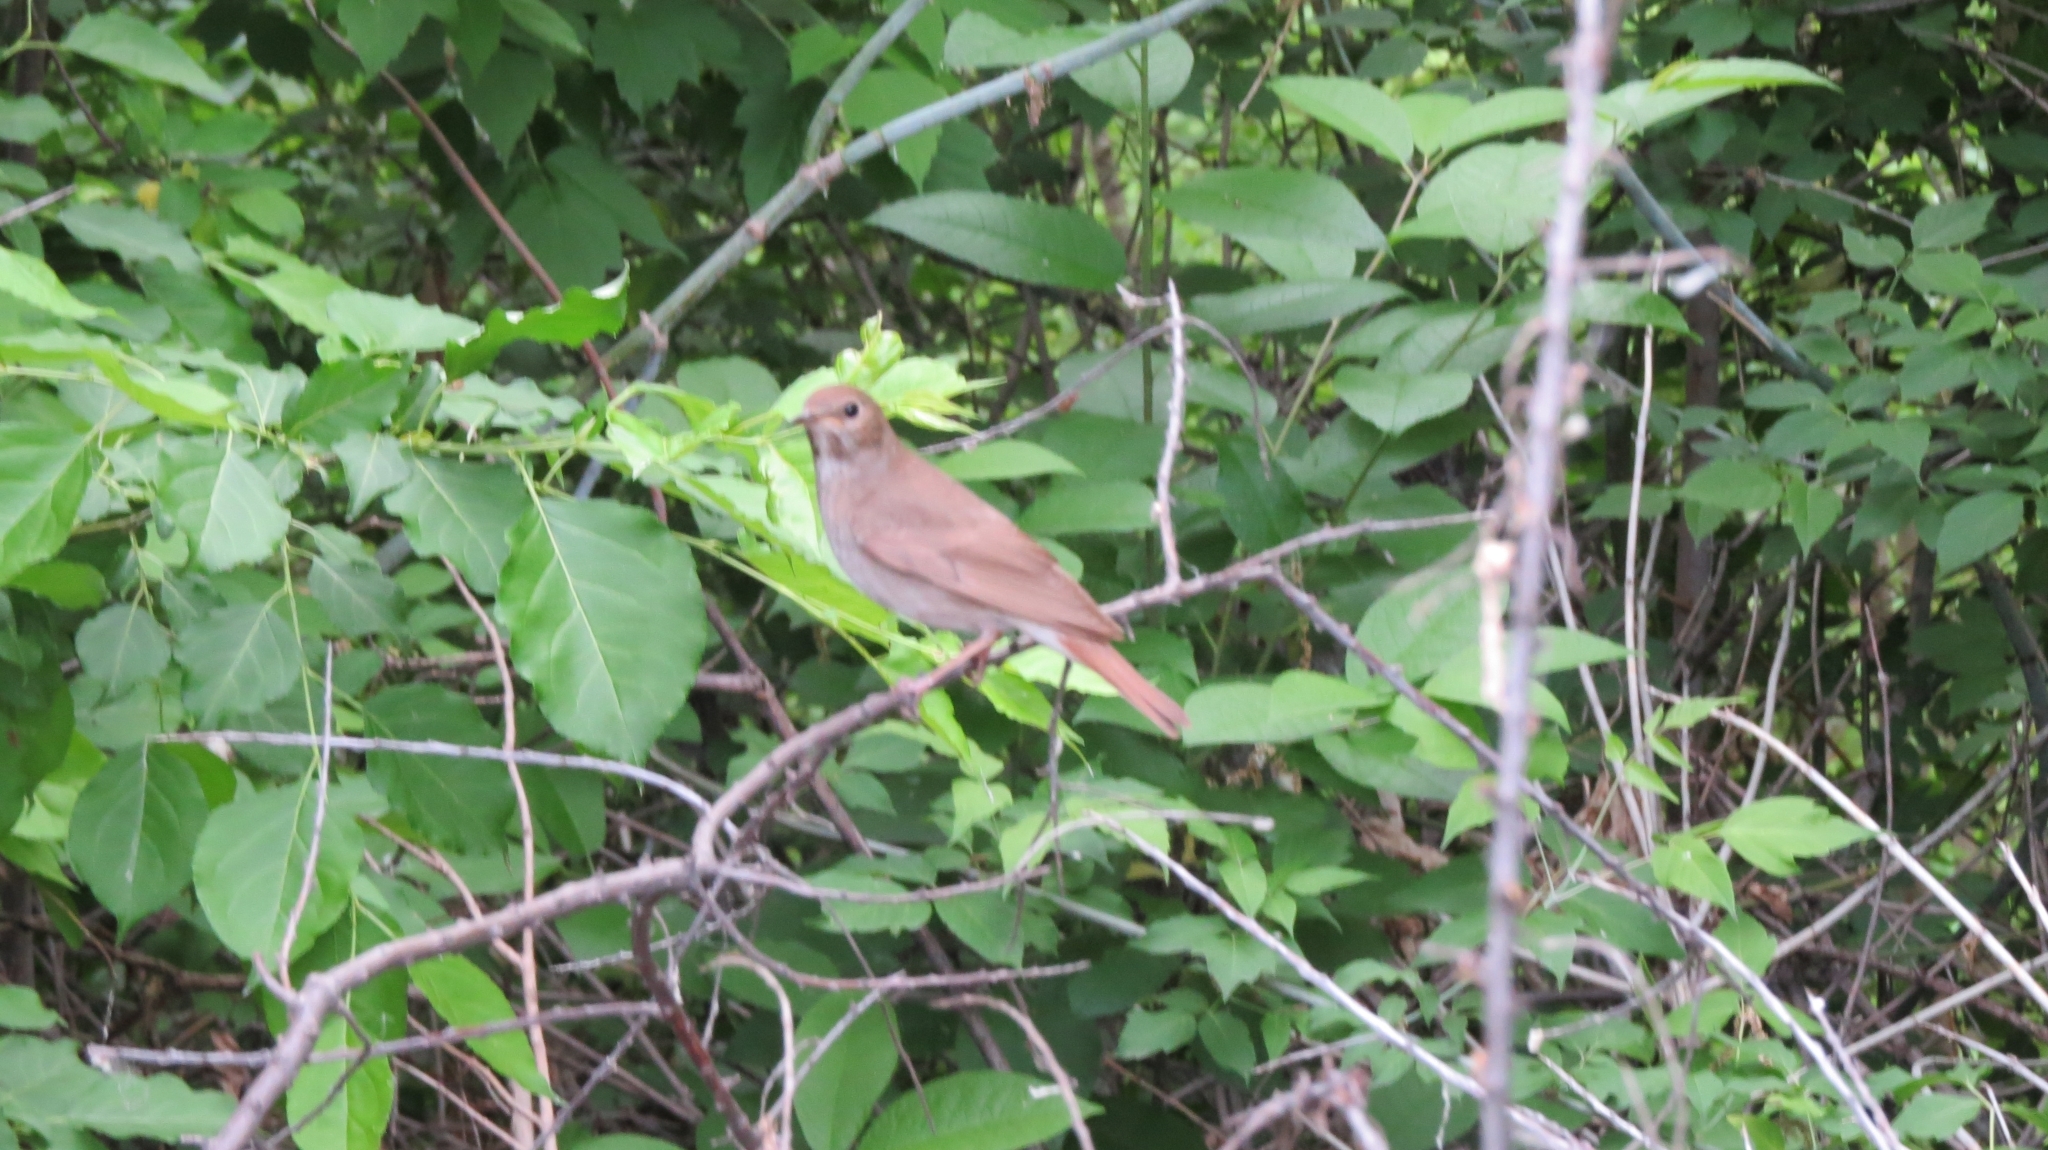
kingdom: Animalia
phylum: Chordata
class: Aves
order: Passeriformes
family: Muscicapidae
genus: Luscinia
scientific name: Luscinia luscinia
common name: Thrush nightingale
